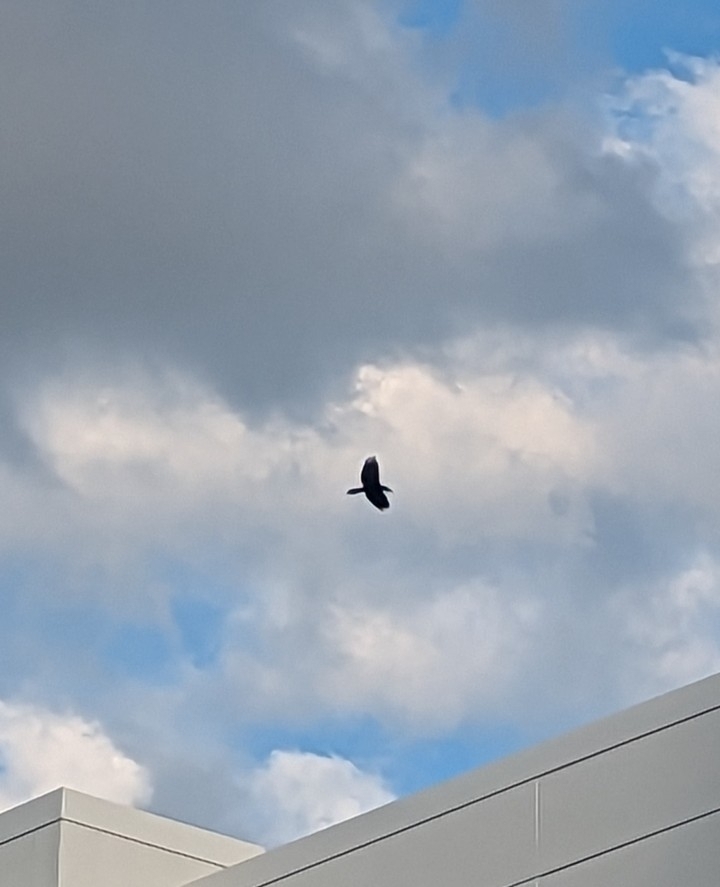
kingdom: Animalia
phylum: Chordata
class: Aves
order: Passeriformes
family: Corvidae
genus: Corvus
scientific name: Corvus corax
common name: Common raven
